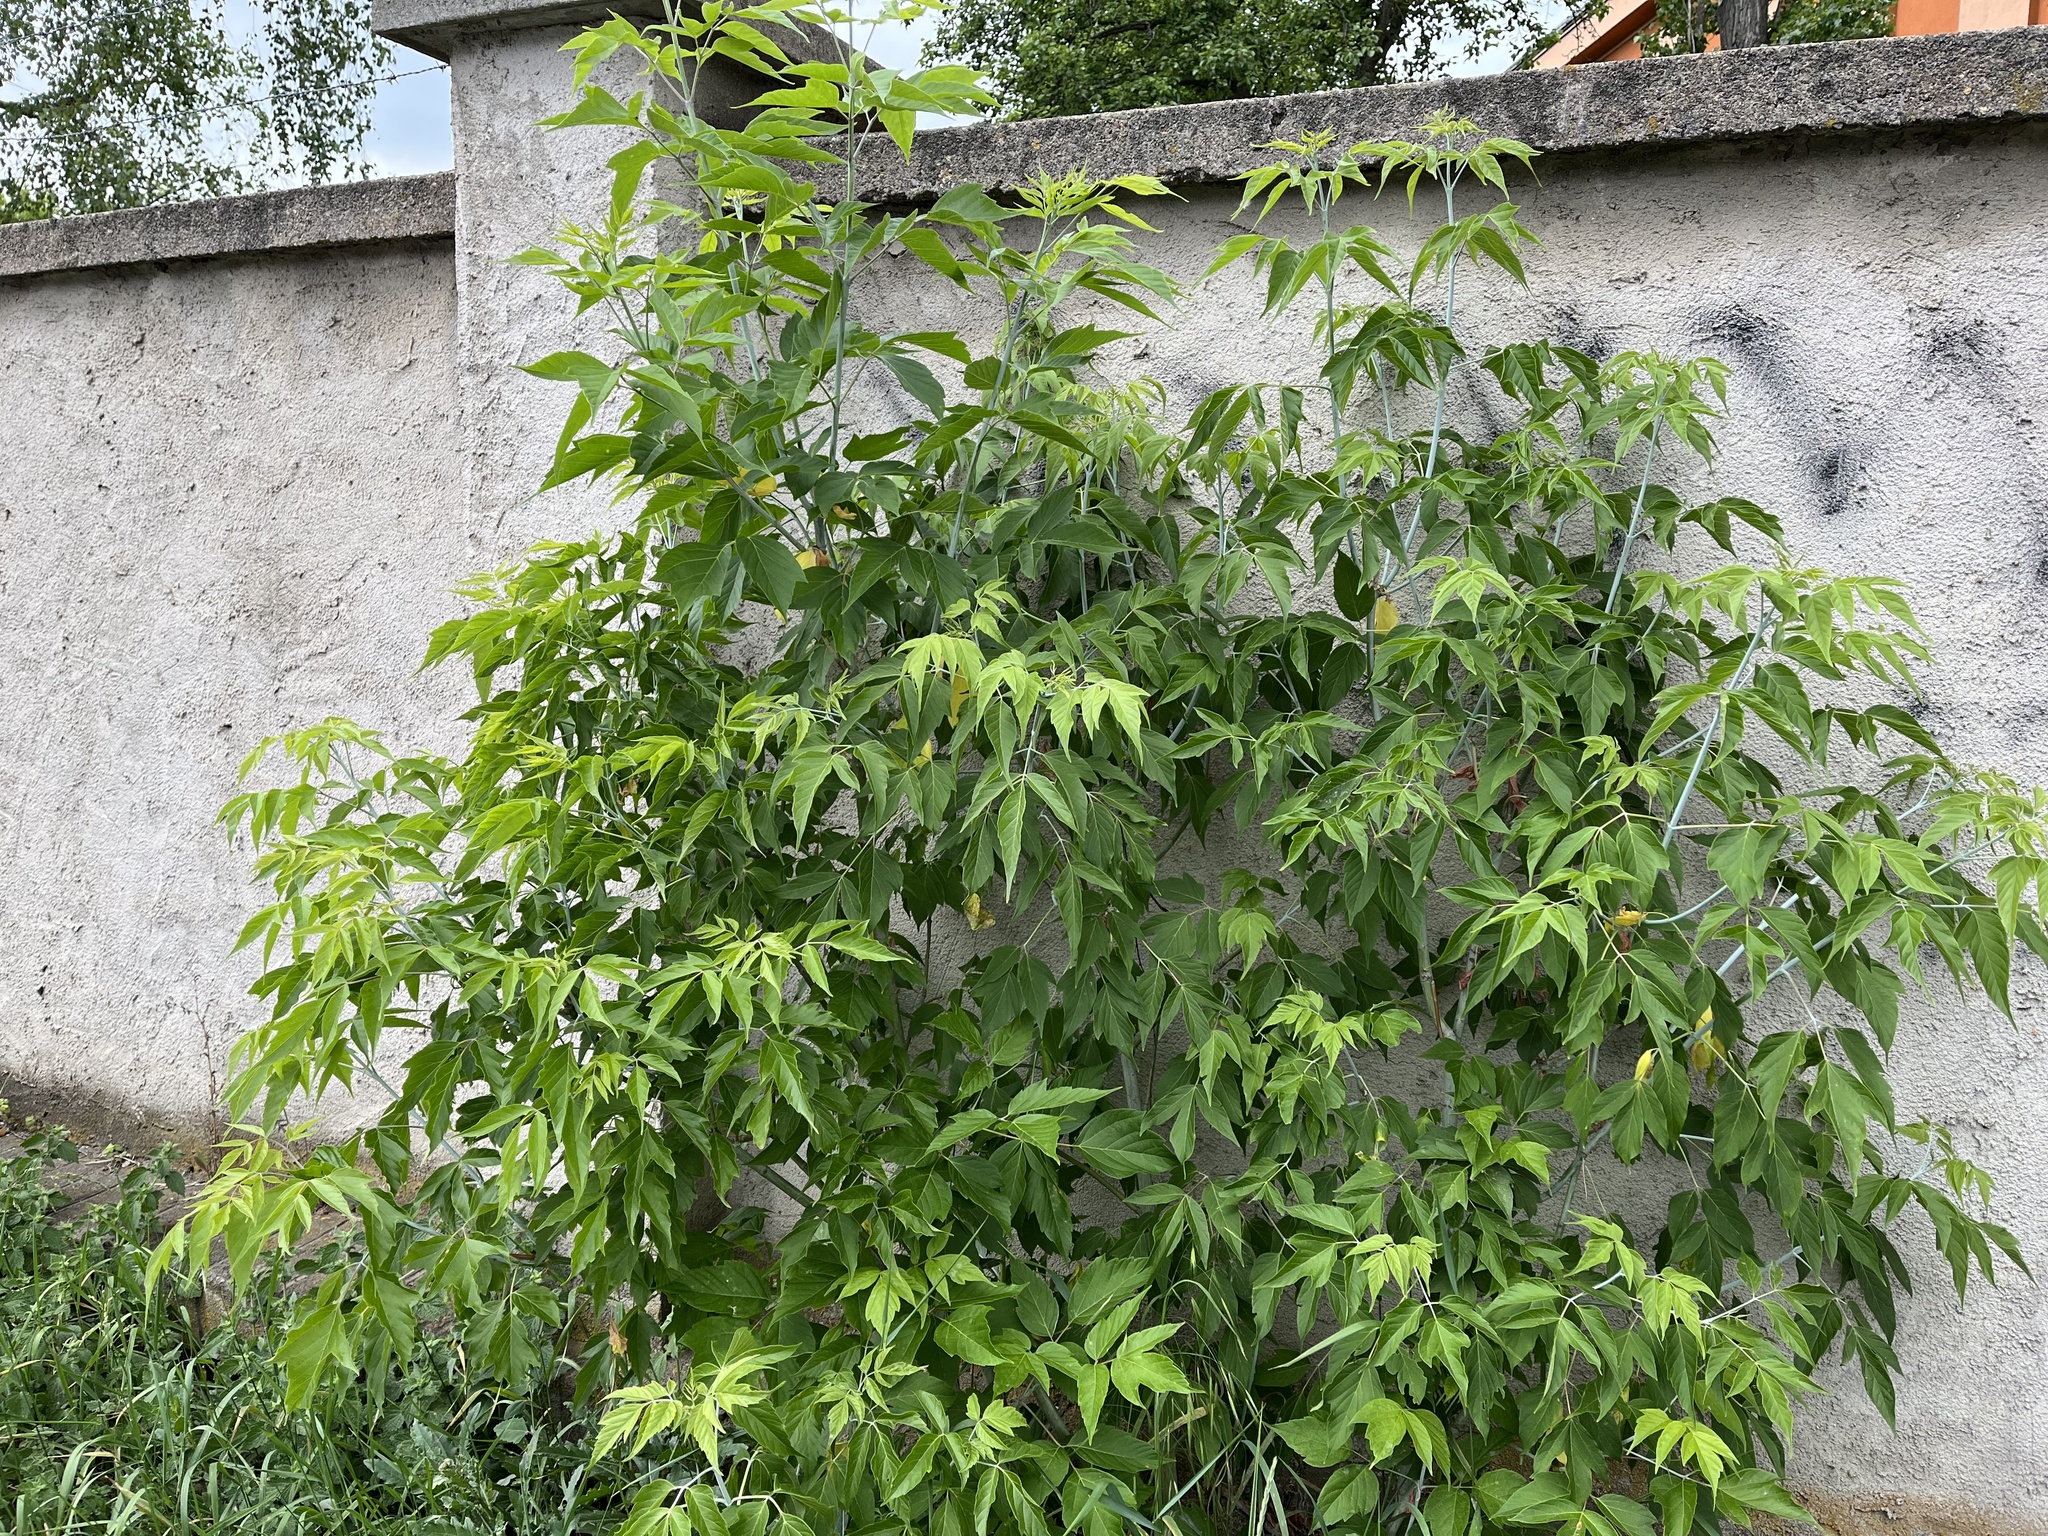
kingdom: Plantae
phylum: Tracheophyta
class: Magnoliopsida
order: Sapindales
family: Sapindaceae
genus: Acer
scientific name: Acer negundo
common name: Ashleaf maple
